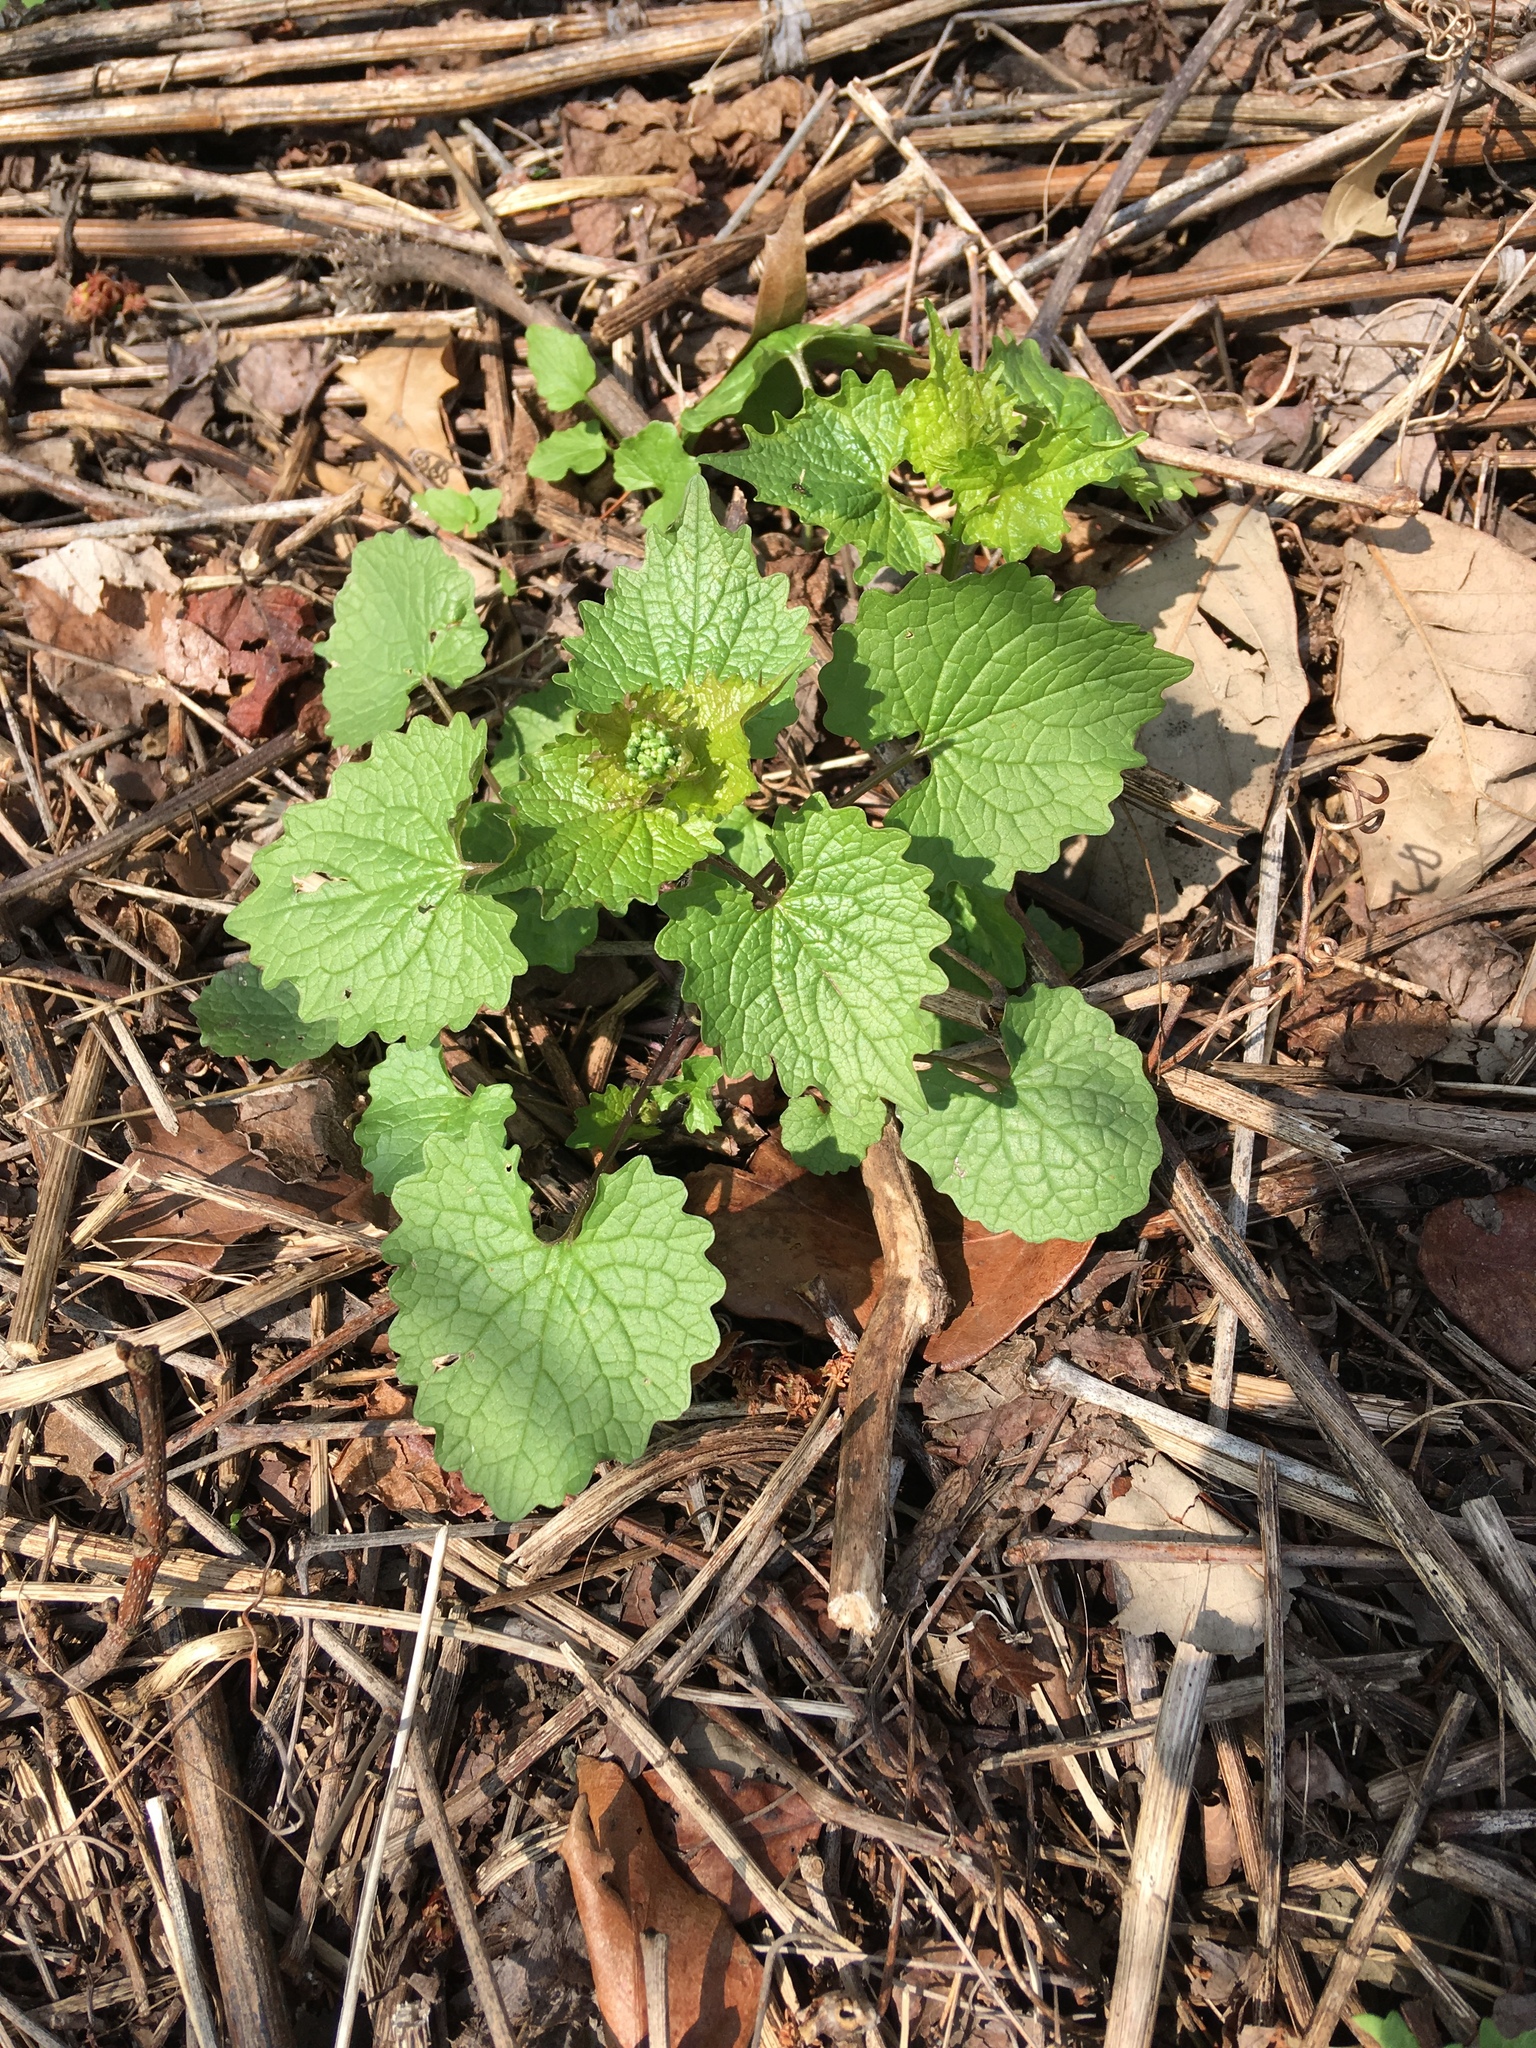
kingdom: Plantae
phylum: Tracheophyta
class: Magnoliopsida
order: Brassicales
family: Brassicaceae
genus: Alliaria
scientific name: Alliaria petiolata
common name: Garlic mustard
